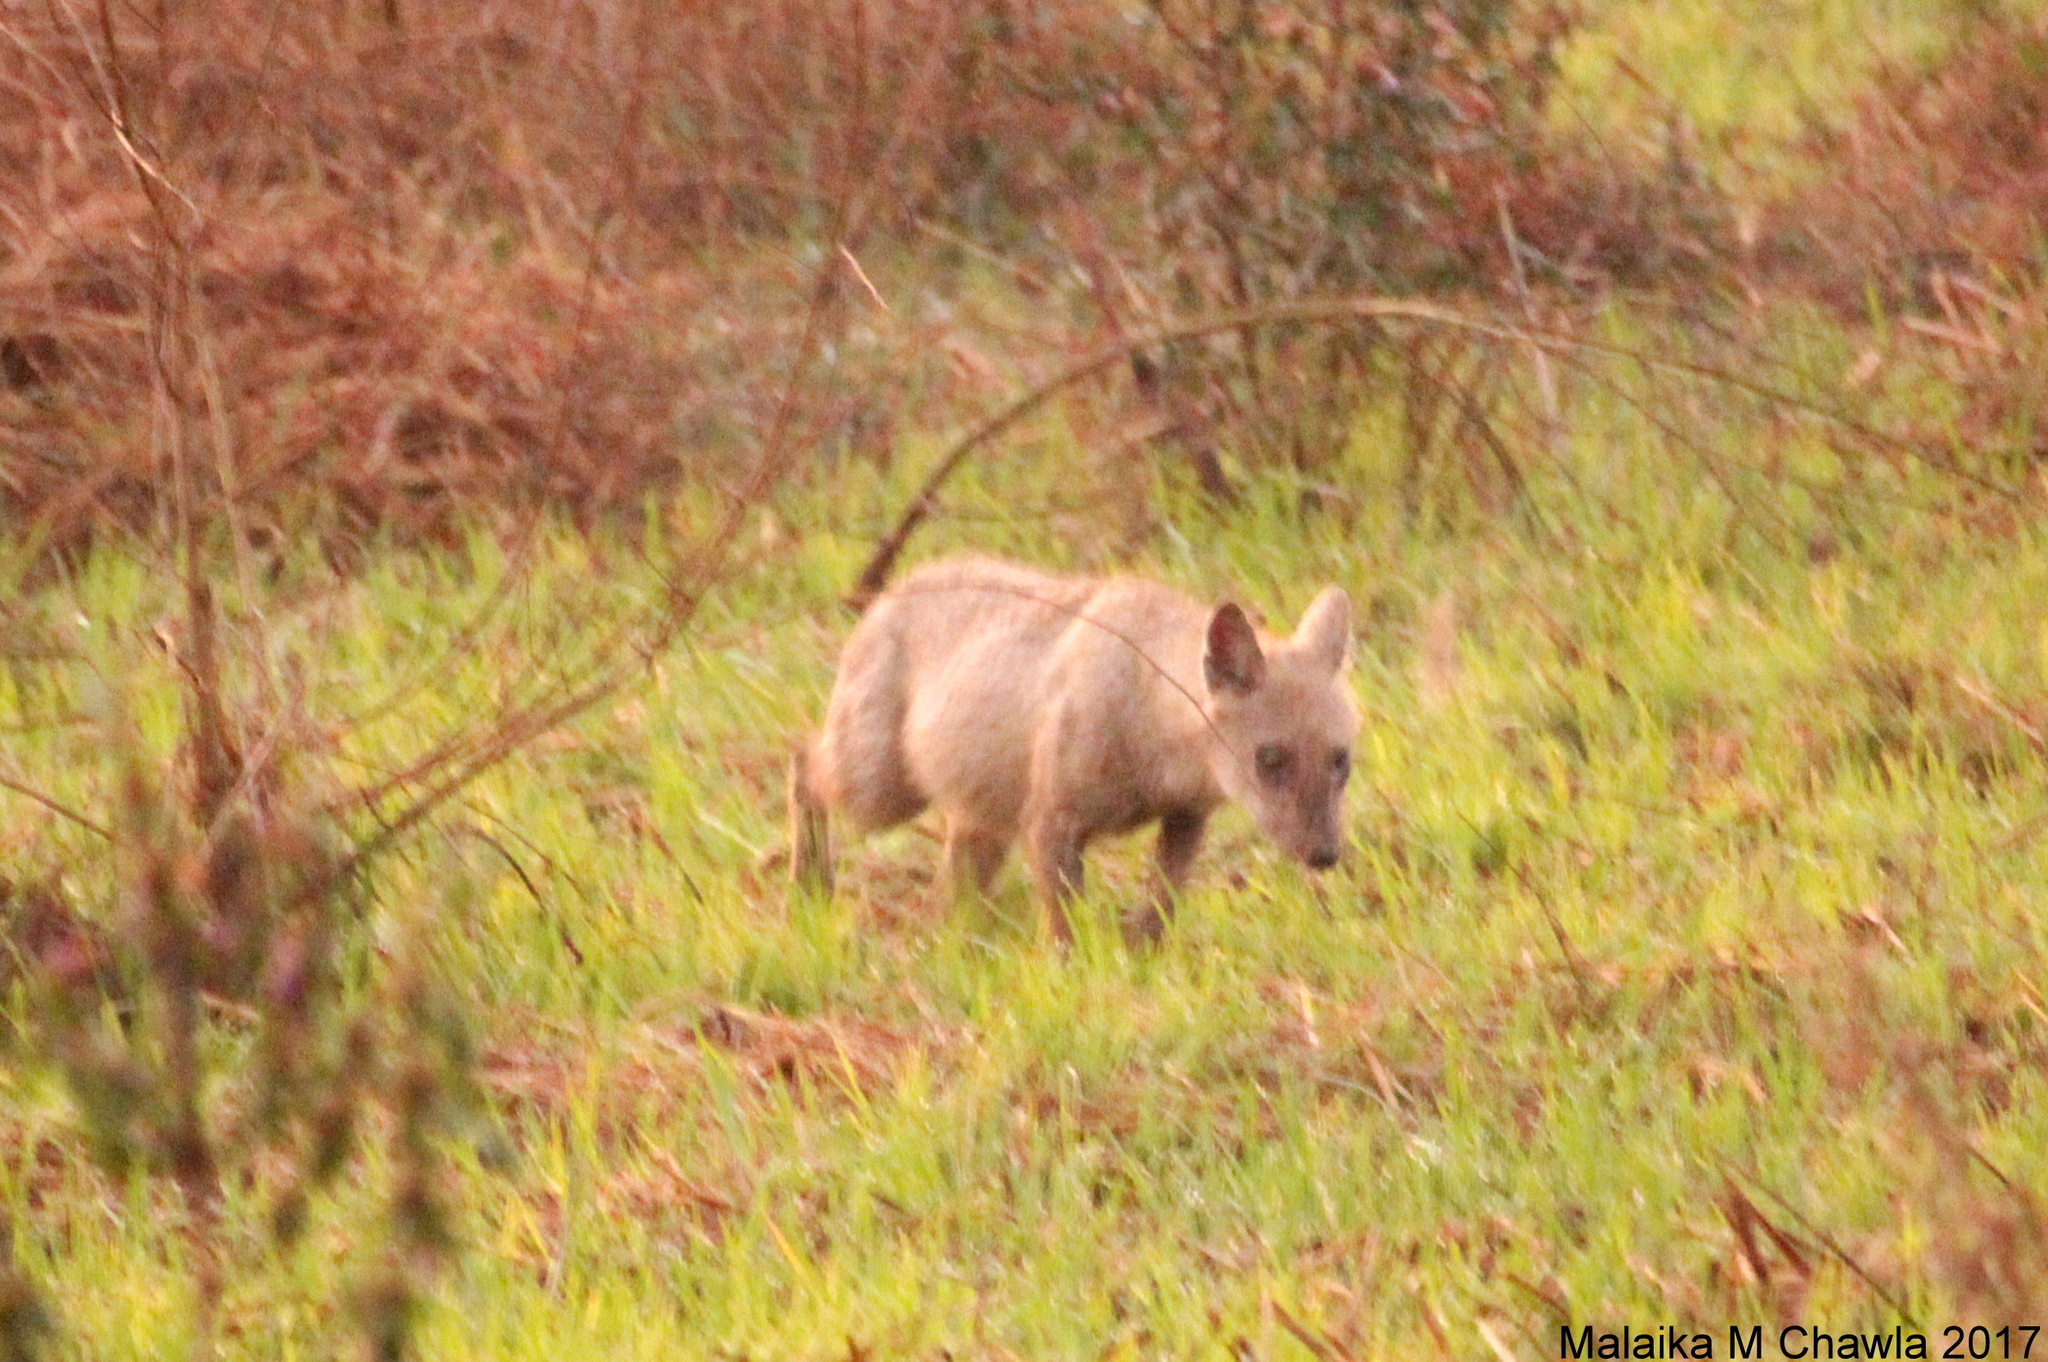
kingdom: Animalia
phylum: Chordata
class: Mammalia
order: Carnivora
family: Canidae
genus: Canis
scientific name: Canis aureus
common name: Golden jackal
